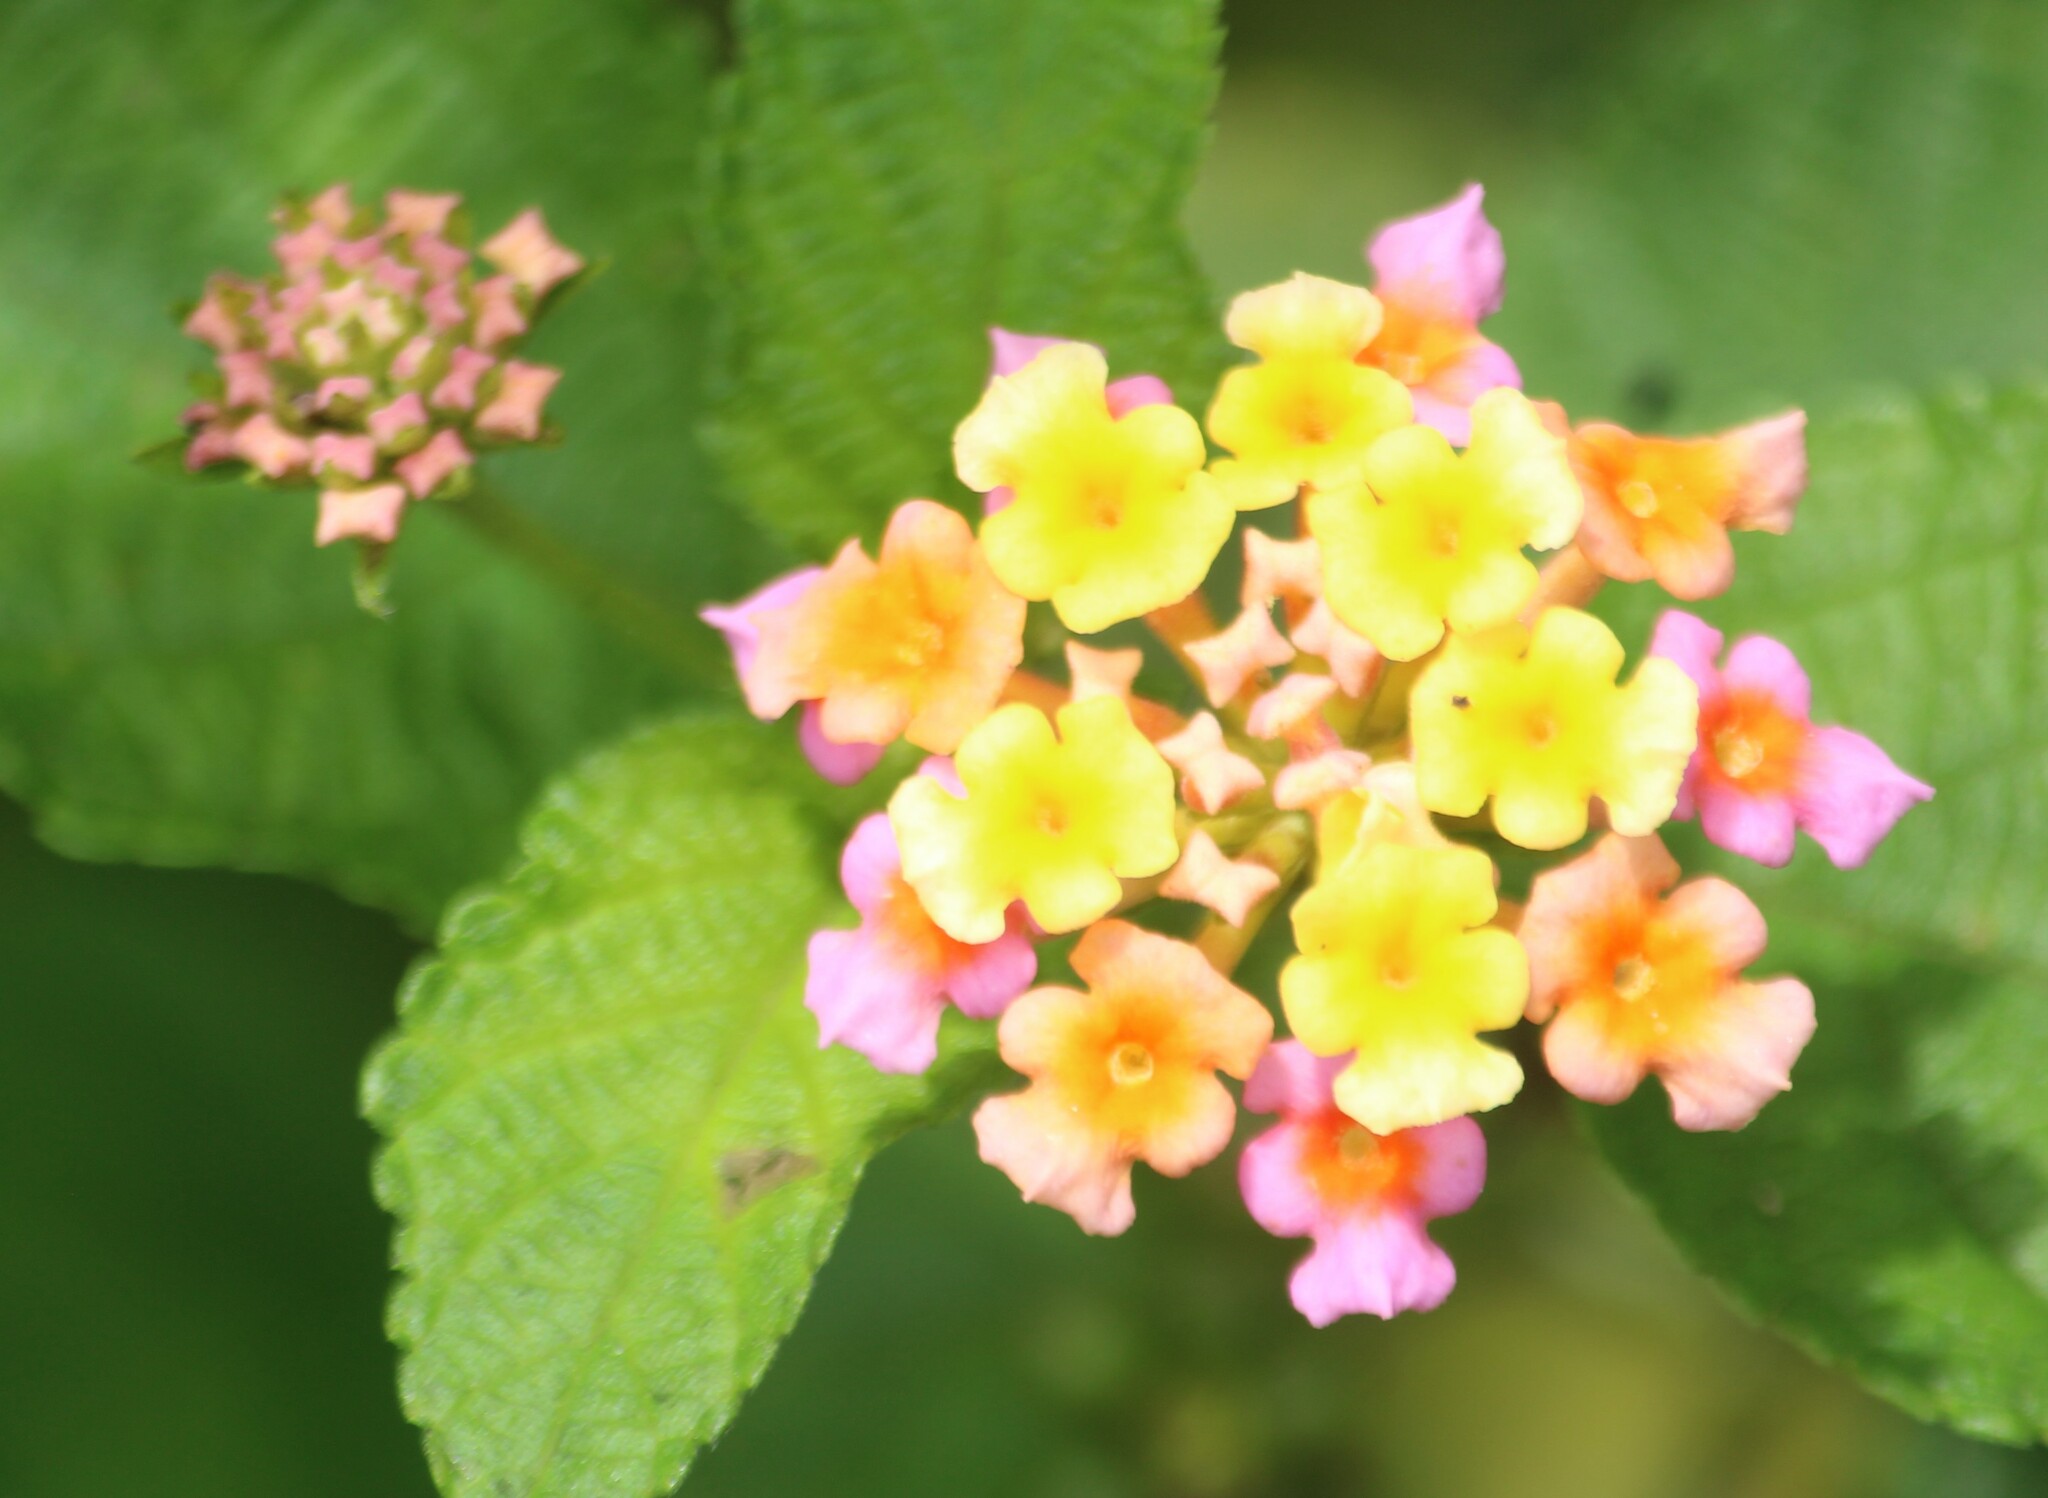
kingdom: Plantae
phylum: Tracheophyta
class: Magnoliopsida
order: Lamiales
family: Verbenaceae
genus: Lantana
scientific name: Lantana camara
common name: Lantana
